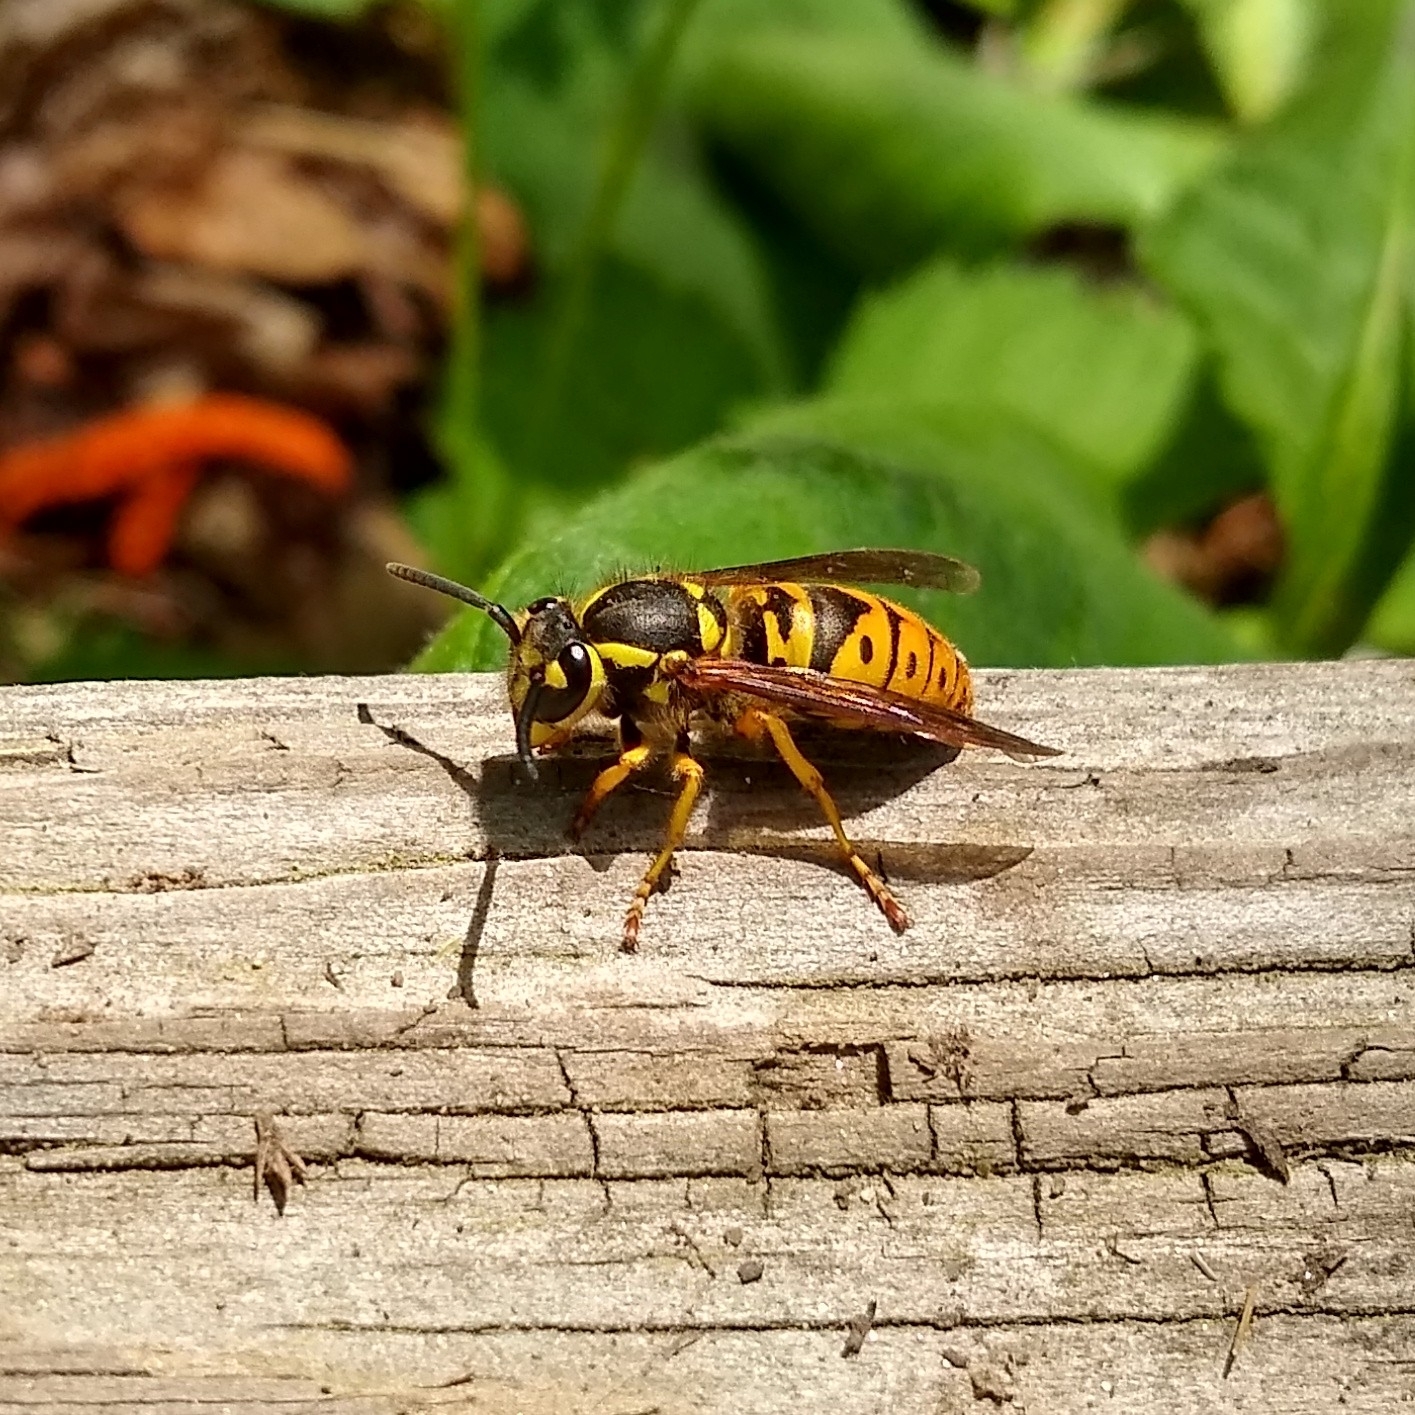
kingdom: Animalia
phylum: Arthropoda
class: Insecta
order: Hymenoptera
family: Vespidae
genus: Vespula
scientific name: Vespula maculifrons
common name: Eastern yellowjacket
